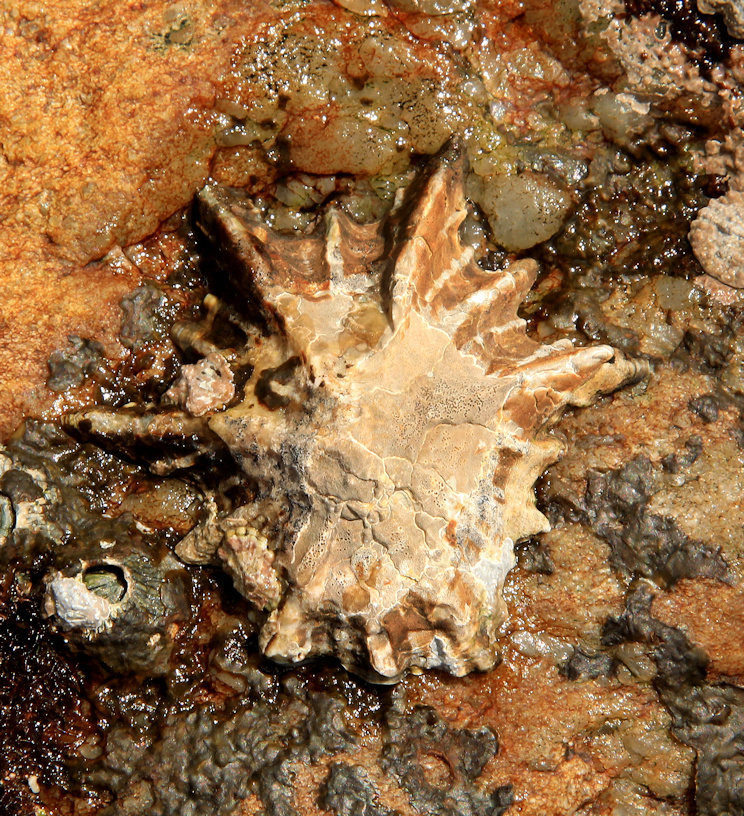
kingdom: Animalia
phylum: Mollusca
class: Gastropoda
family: Patellidae
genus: Scutellastra
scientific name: Scutellastra longicosta
